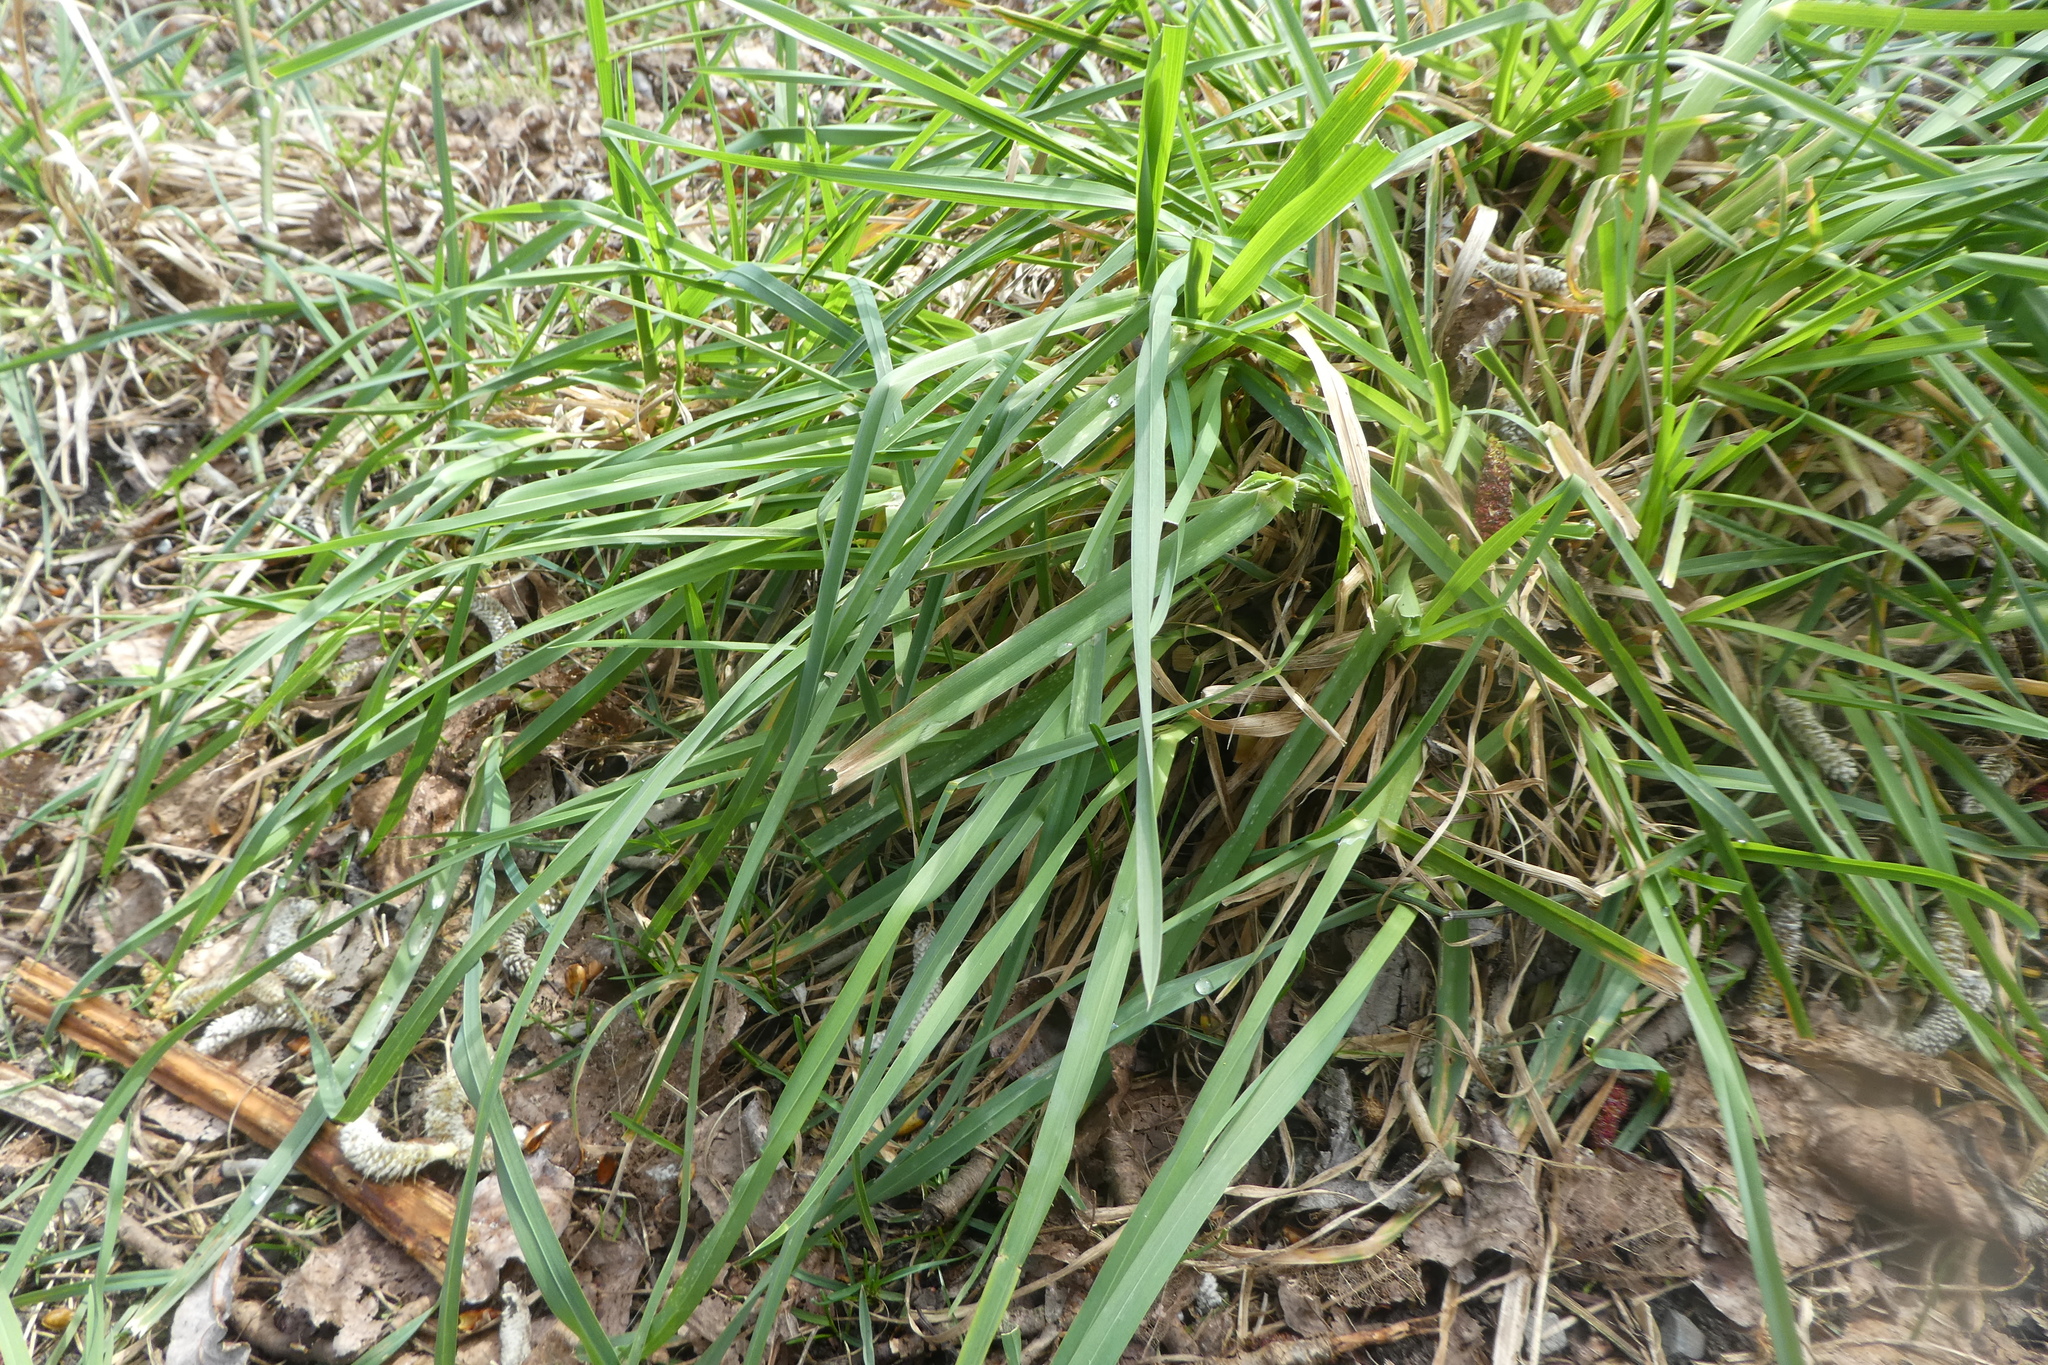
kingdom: Plantae
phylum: Tracheophyta
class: Liliopsida
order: Poales
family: Poaceae
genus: Dactylis
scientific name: Dactylis glomerata
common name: Orchardgrass
